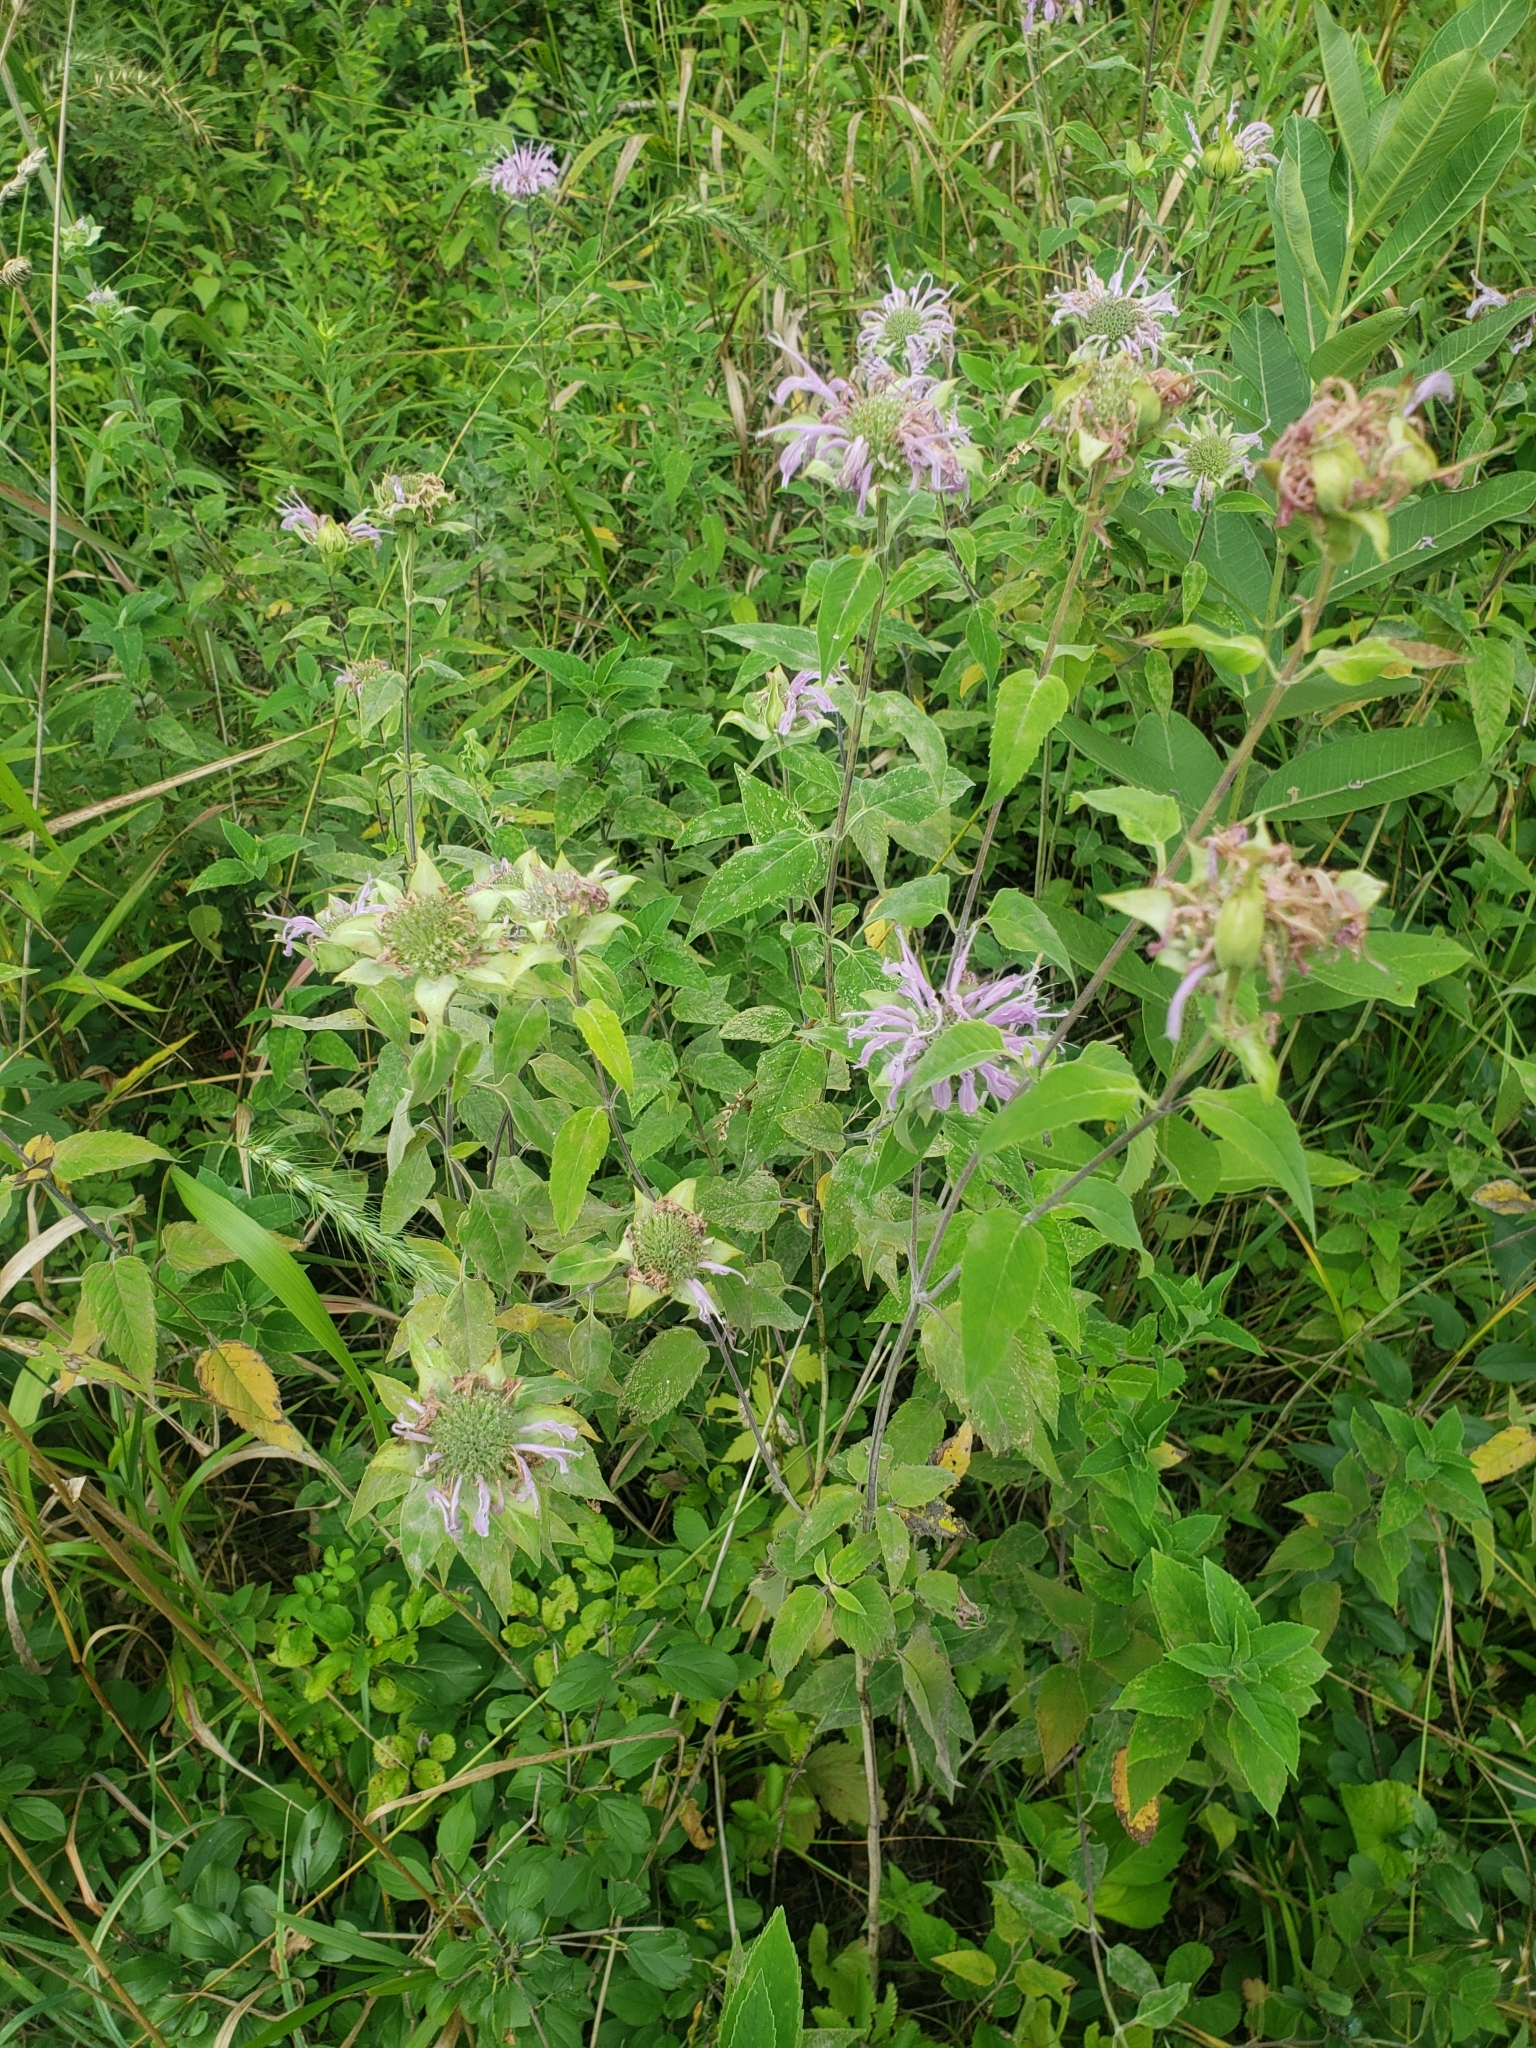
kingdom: Plantae
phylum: Tracheophyta
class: Magnoliopsida
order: Lamiales
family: Lamiaceae
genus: Monarda
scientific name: Monarda fistulosa
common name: Purple beebalm
